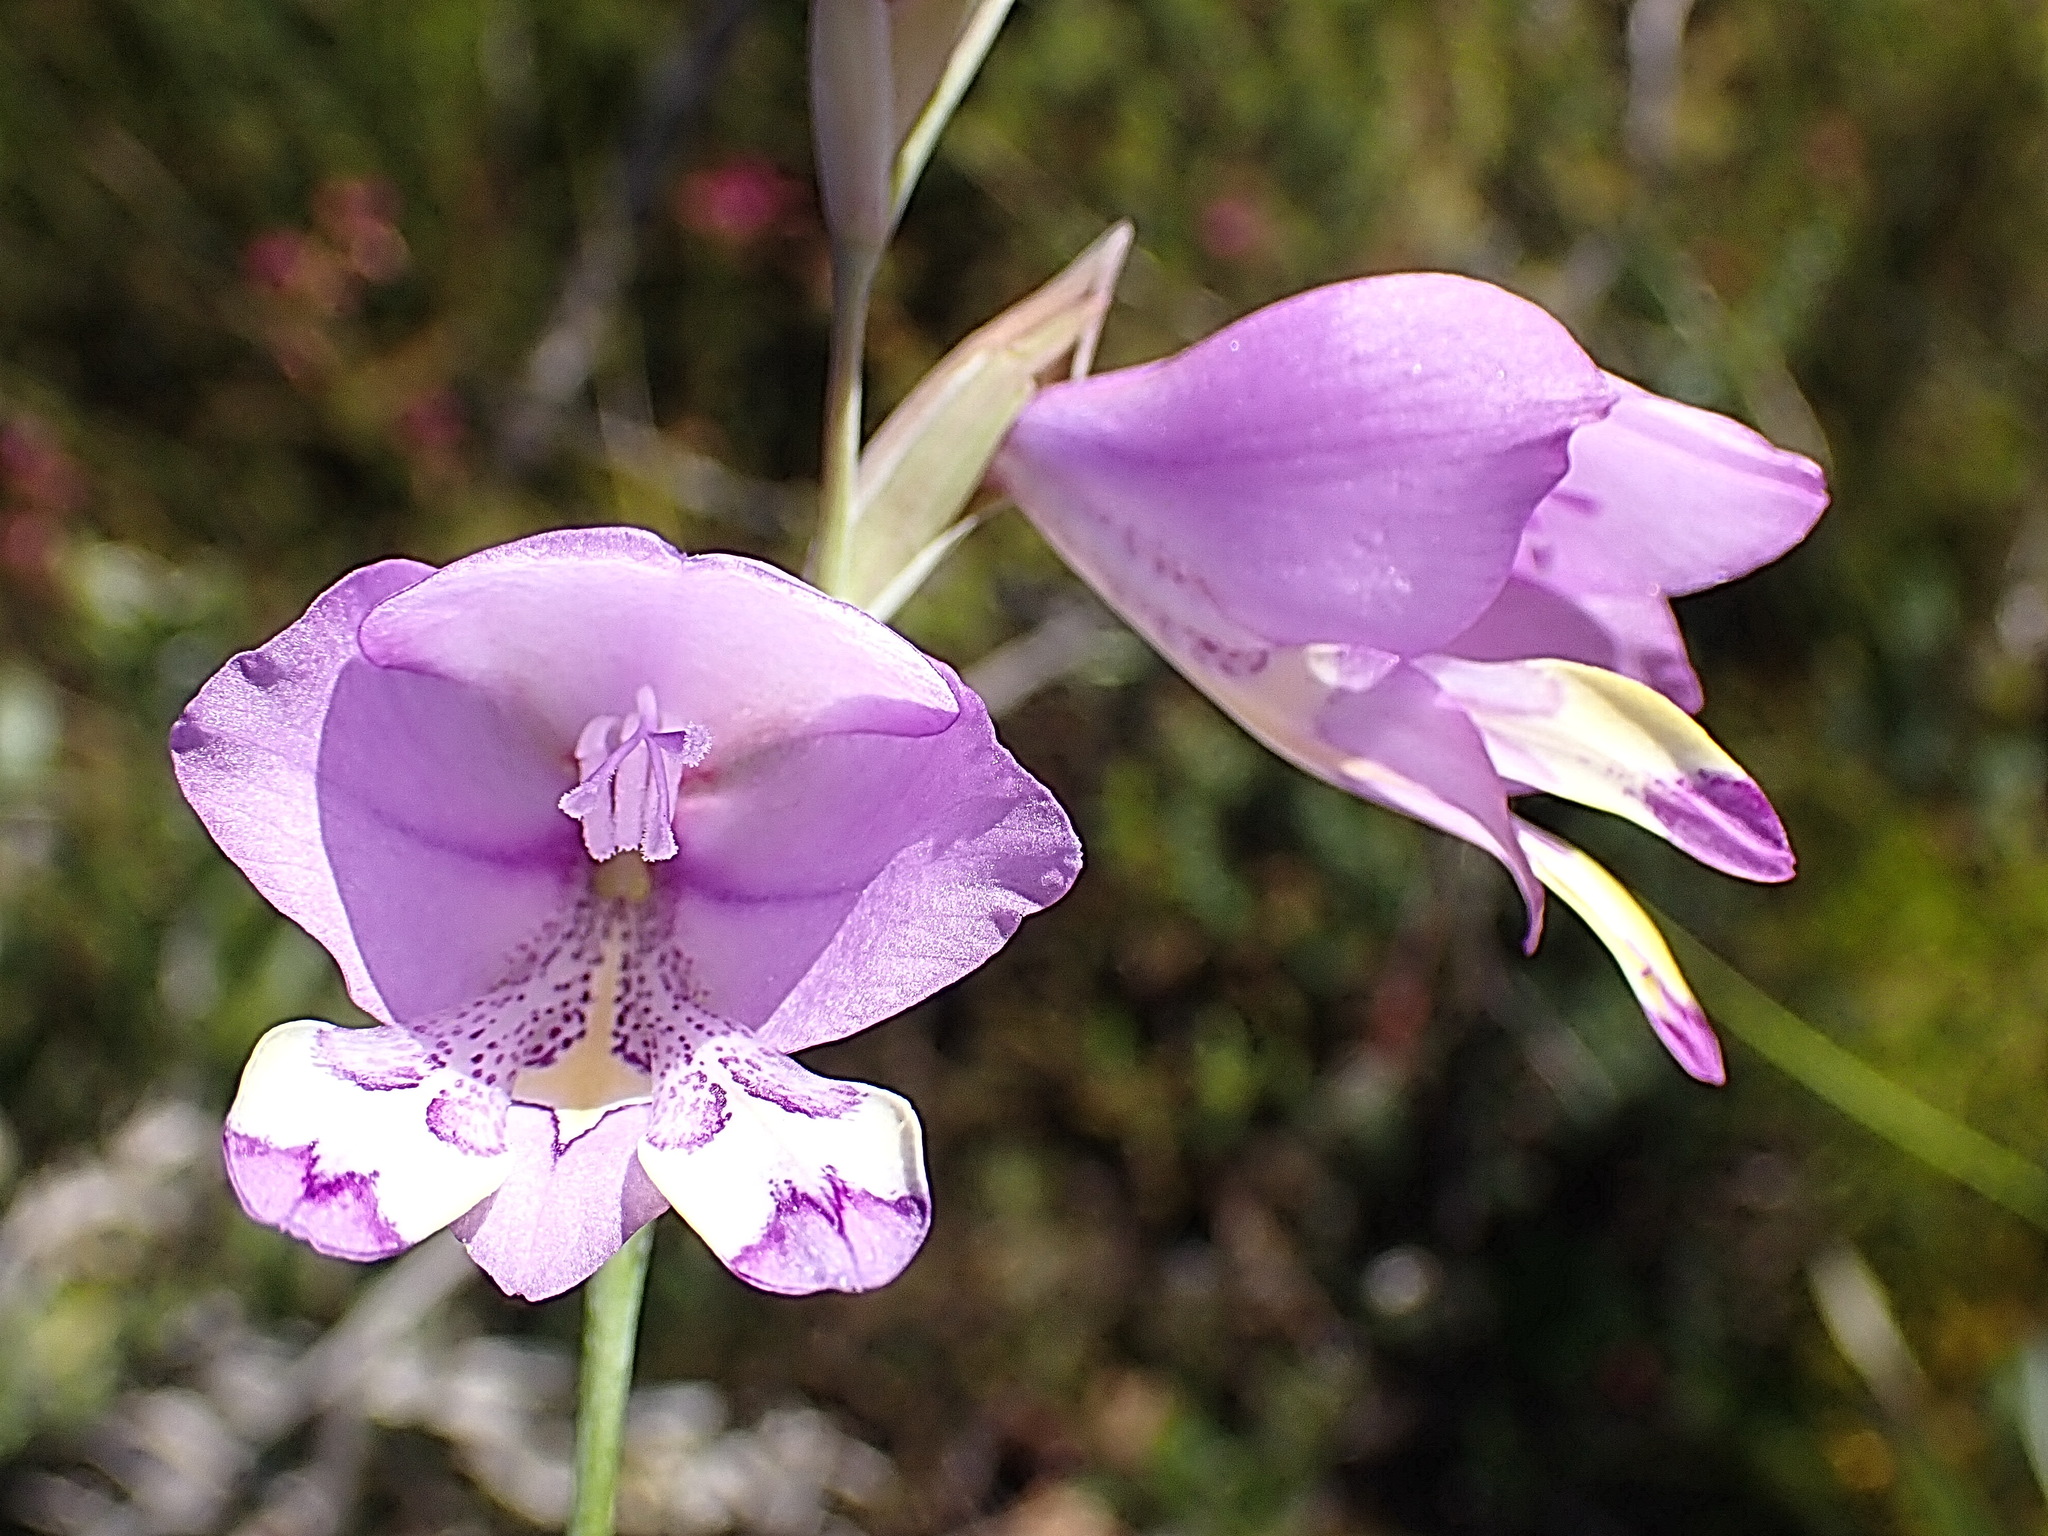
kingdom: Plantae
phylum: Tracheophyta
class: Liliopsida
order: Asparagales
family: Iridaceae
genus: Gladiolus
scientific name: Gladiolus rogersii
